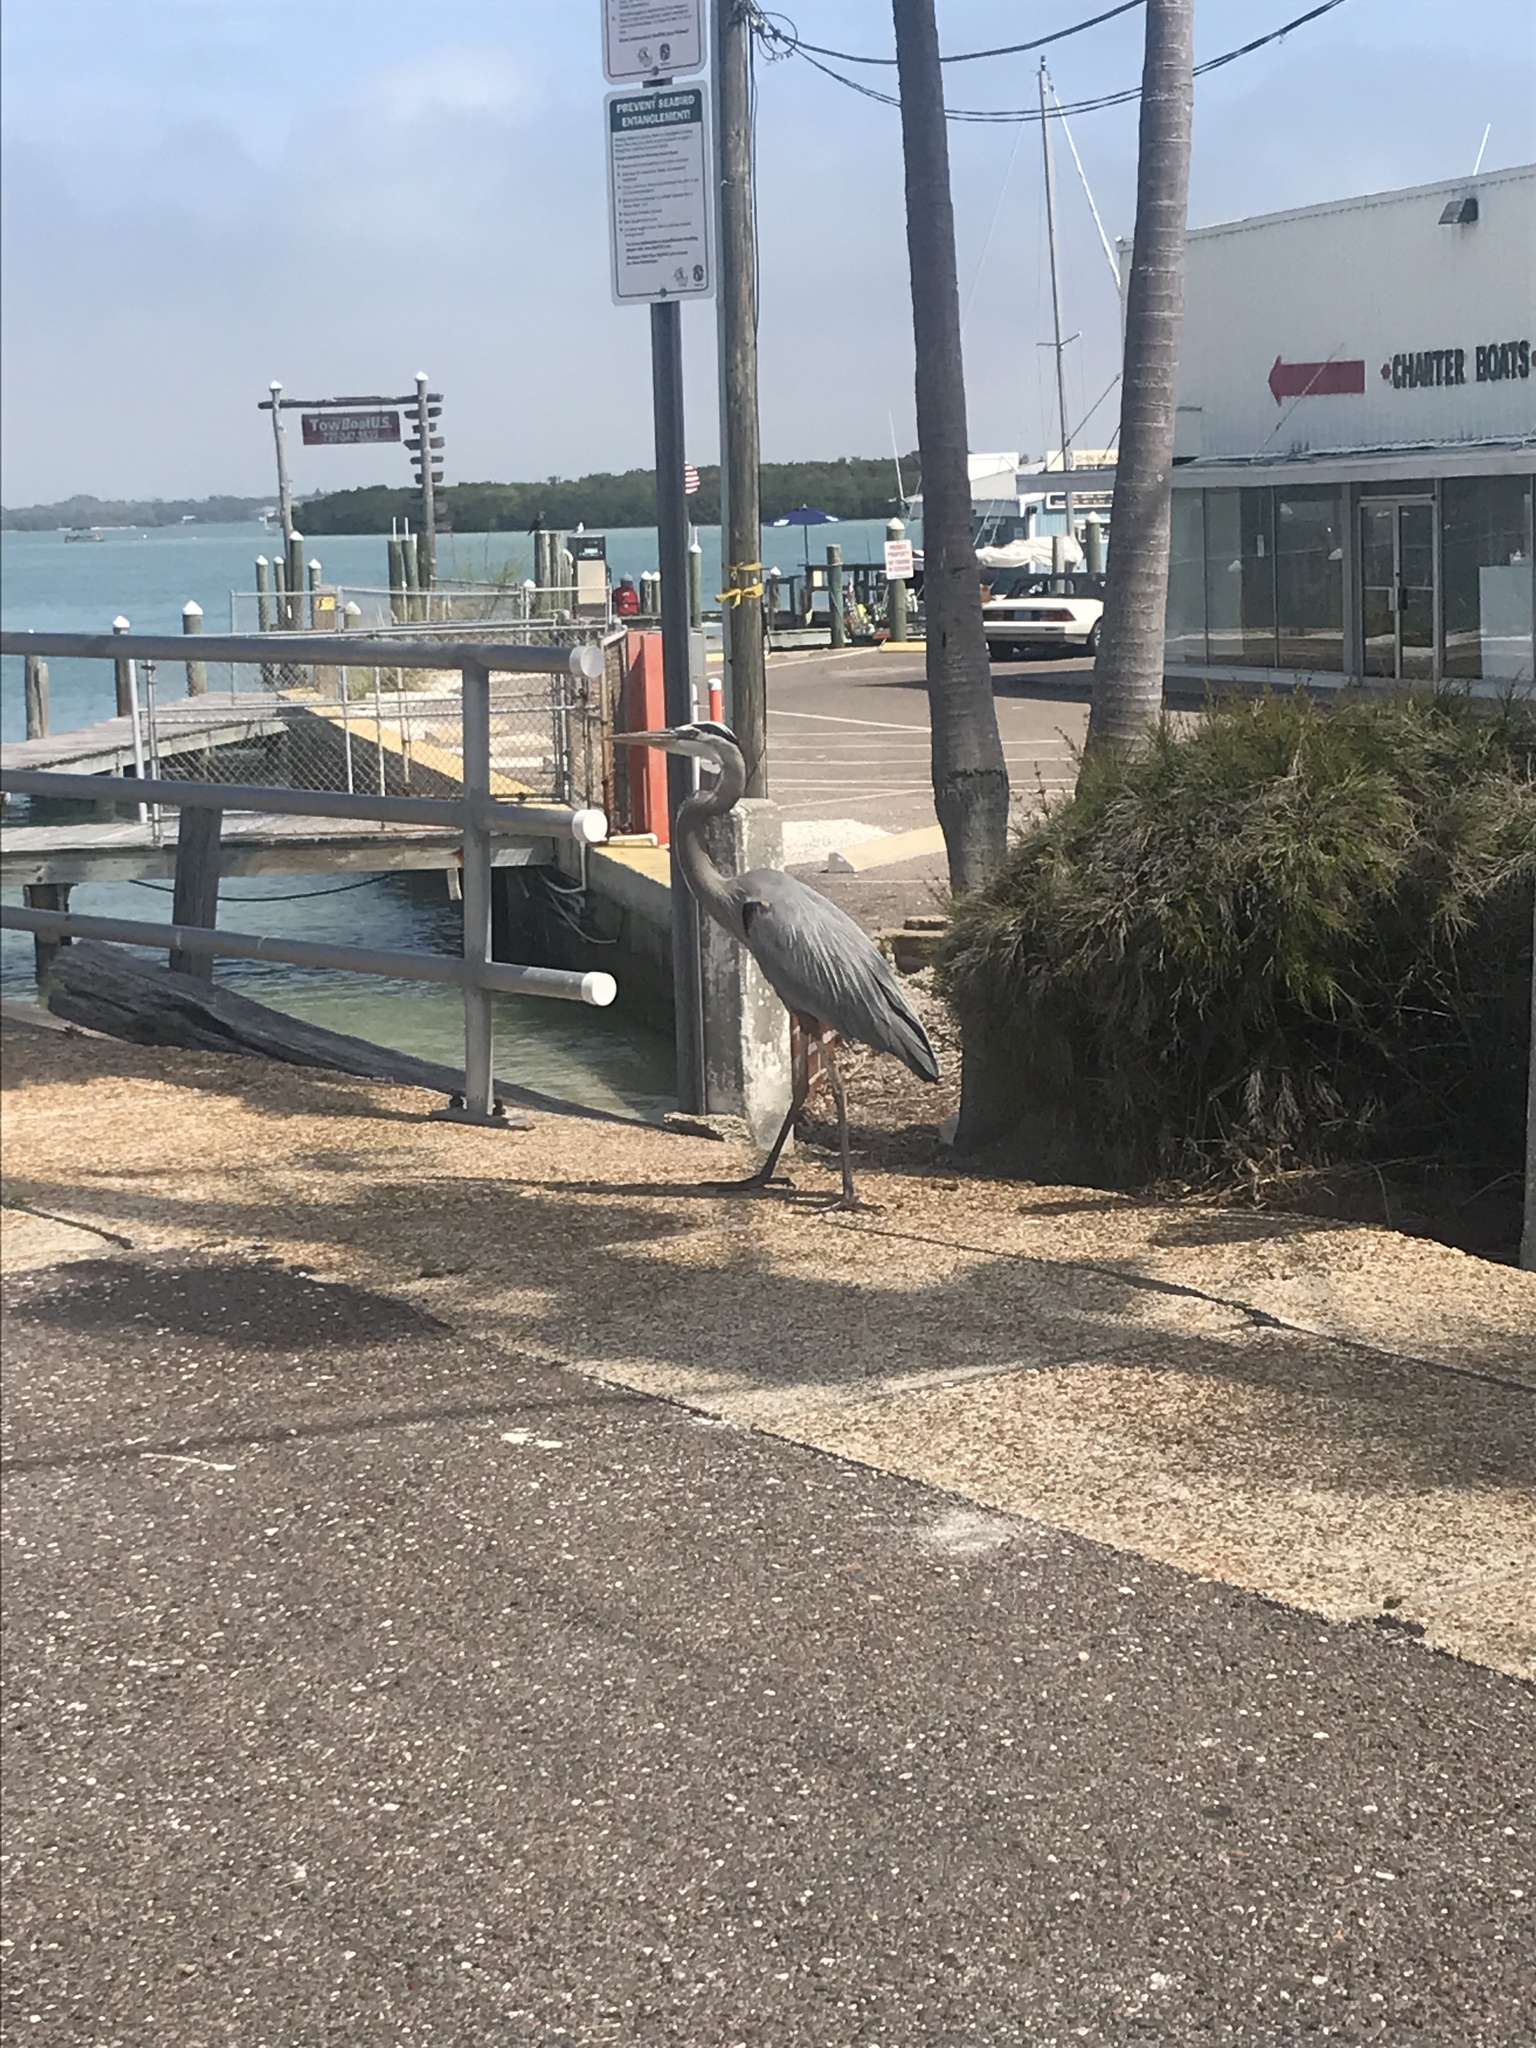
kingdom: Animalia
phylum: Chordata
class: Aves
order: Pelecaniformes
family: Ardeidae
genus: Ardea
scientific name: Ardea herodias
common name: Great blue heron
